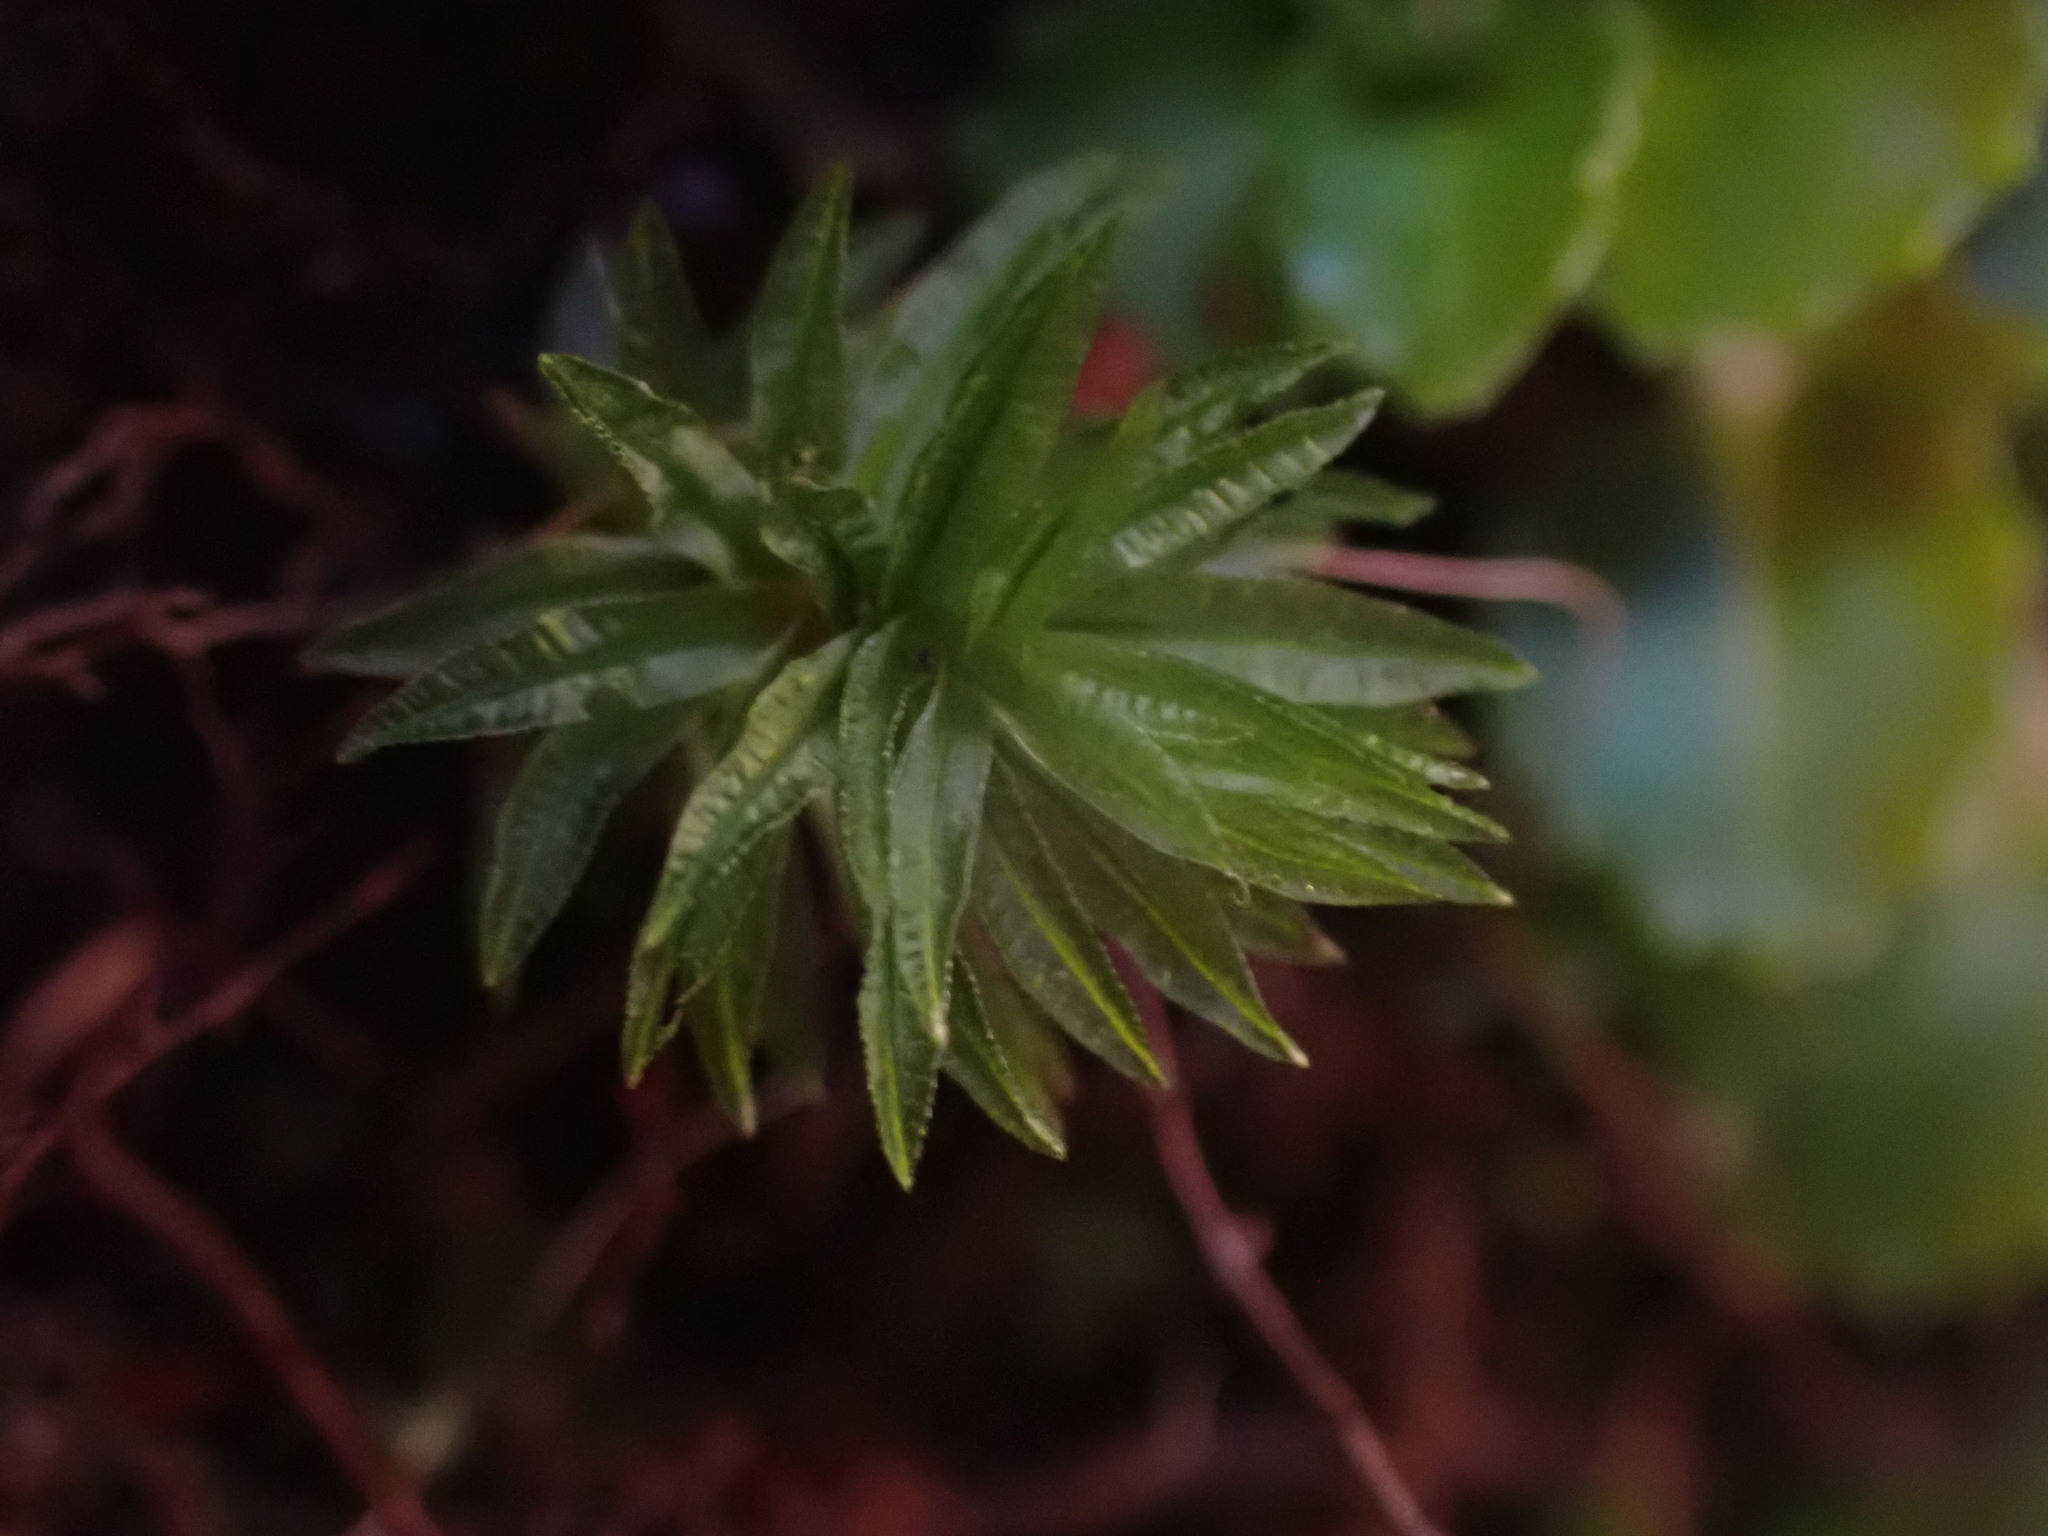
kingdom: Plantae
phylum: Bryophyta
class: Polytrichopsida
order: Polytrichales
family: Polytrichaceae
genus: Atrichum
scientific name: Atrichum androgynum
